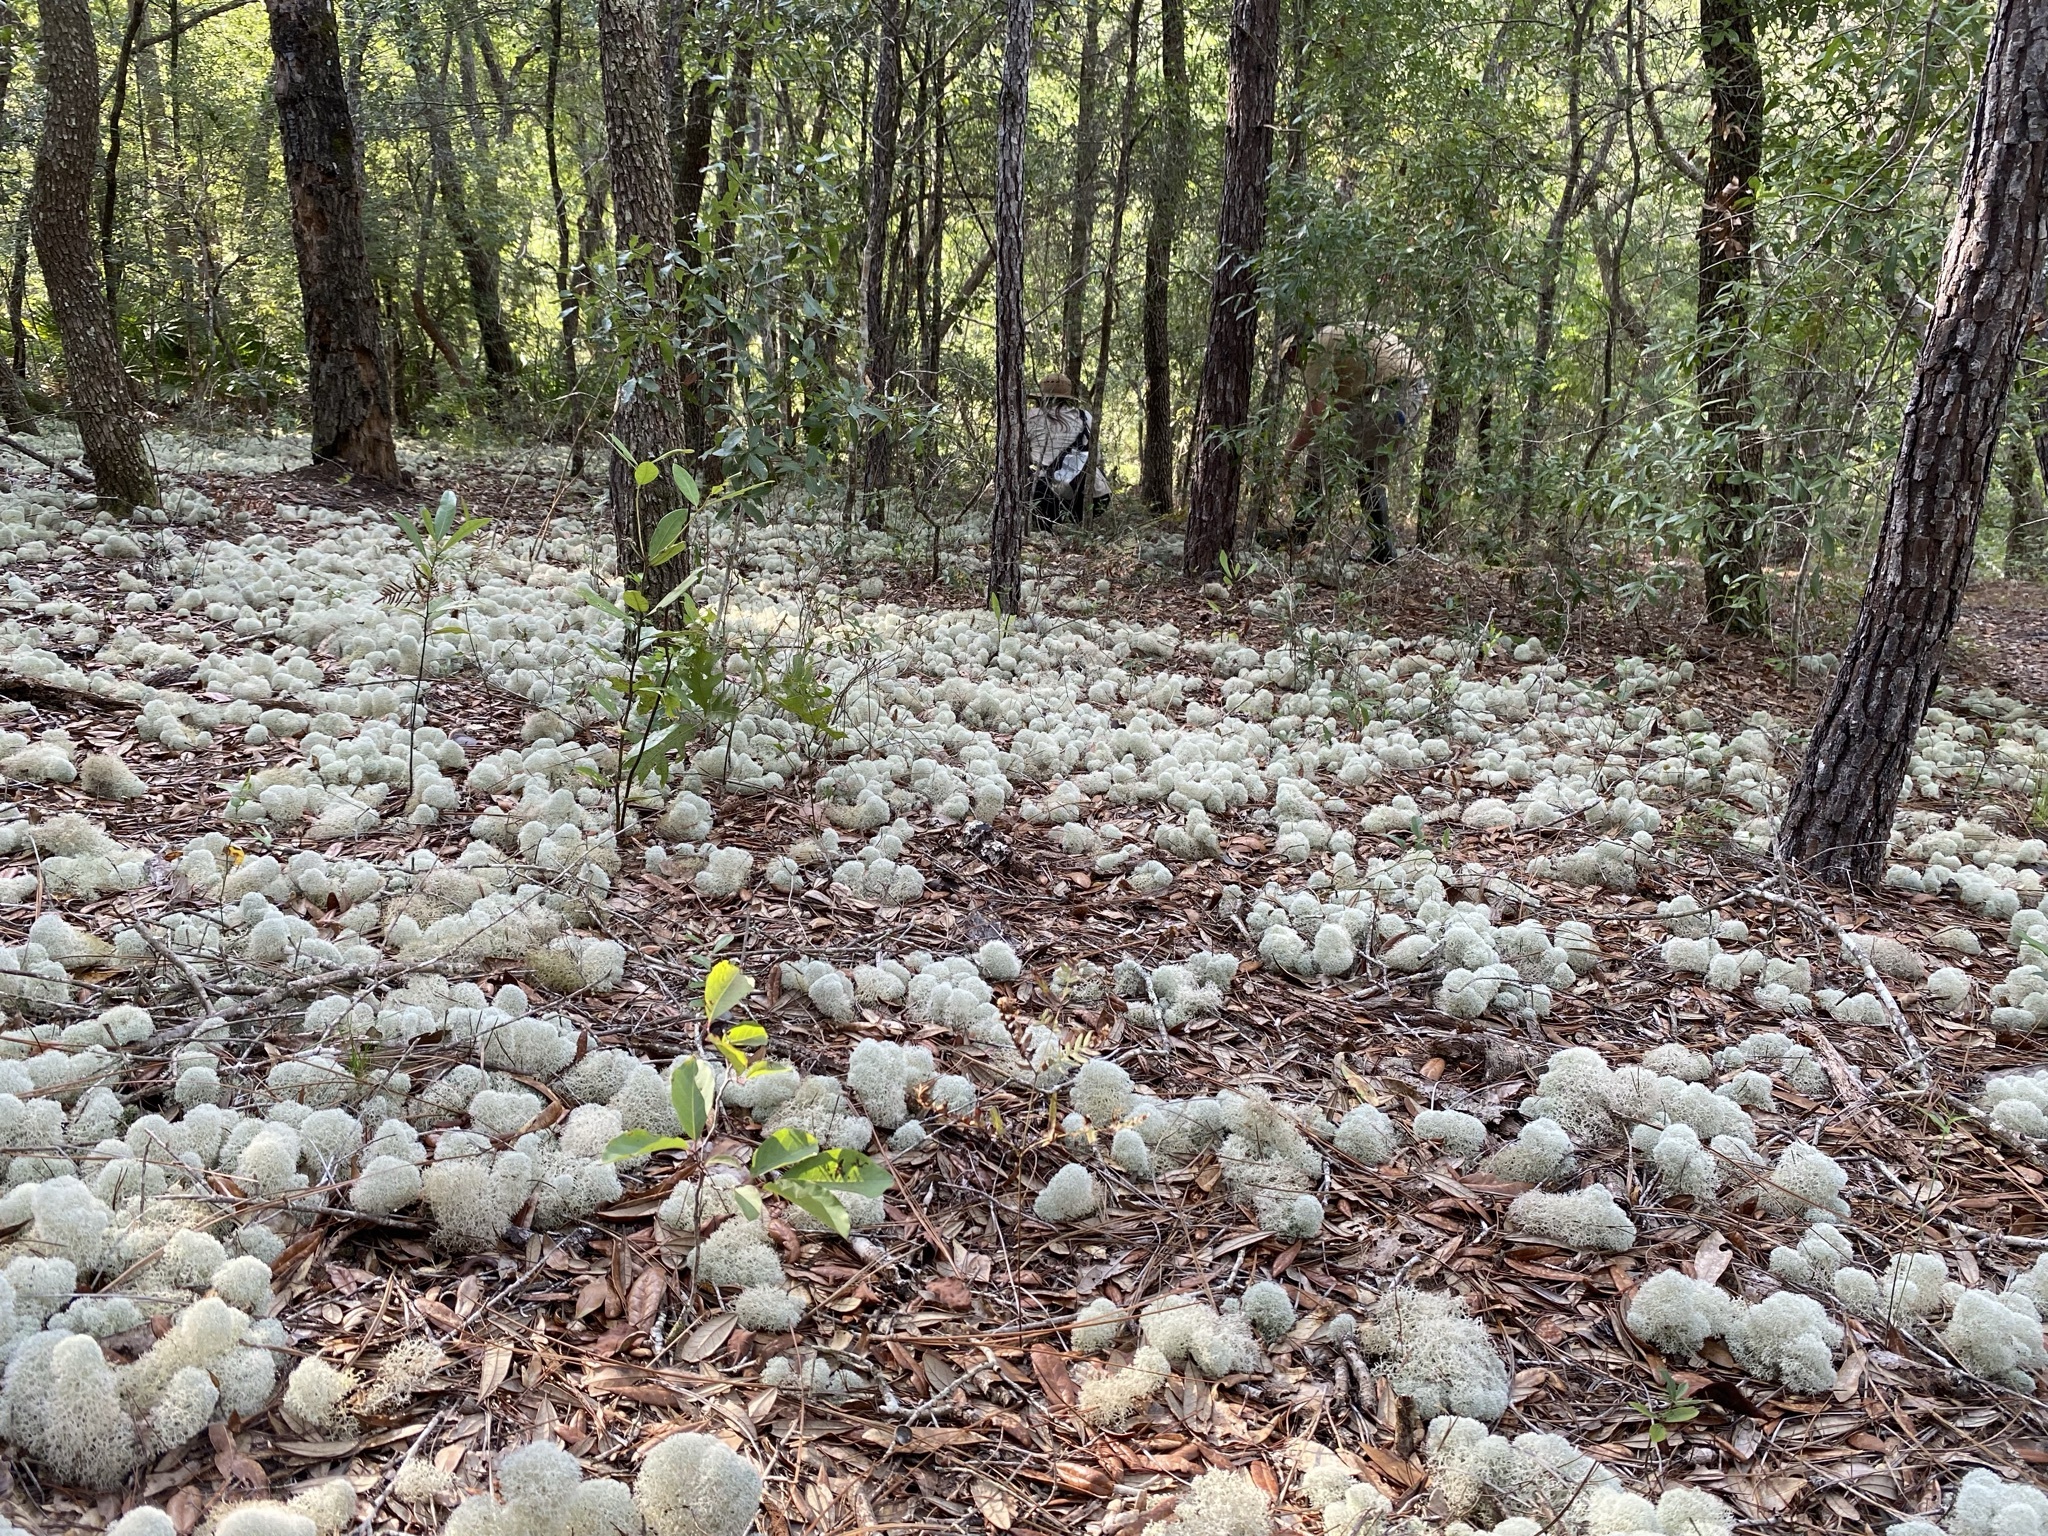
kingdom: Fungi
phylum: Ascomycota
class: Lecanoromycetes
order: Lecanorales
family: Cladoniaceae
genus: Cladonia
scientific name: Cladonia evansii
